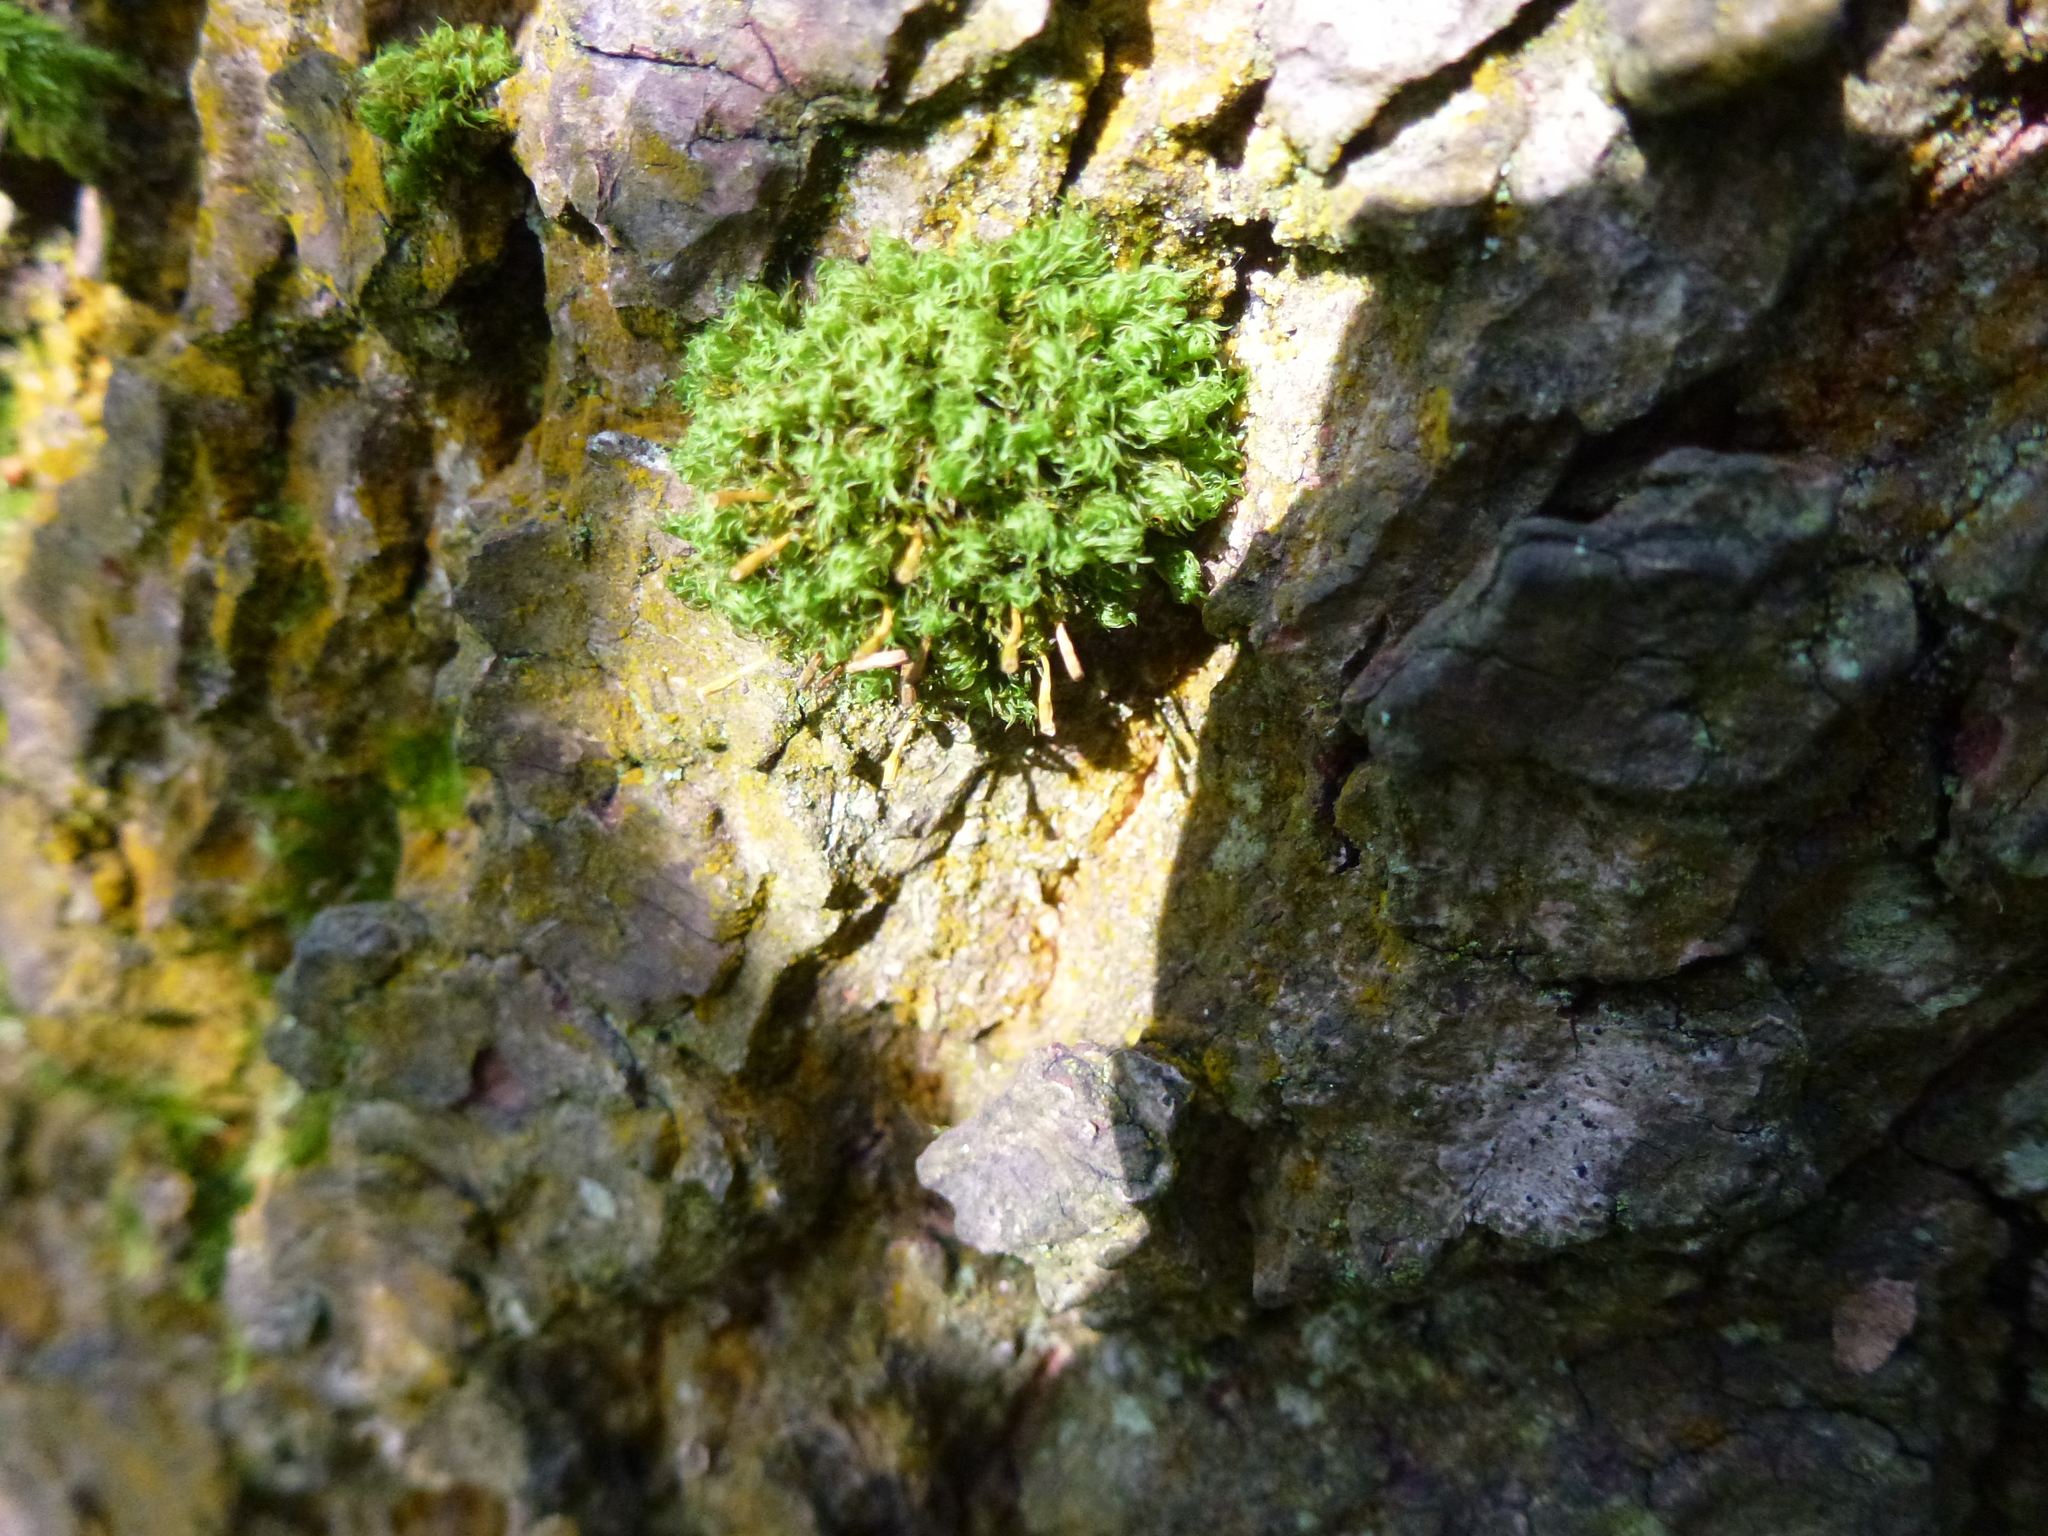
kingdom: Plantae
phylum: Bryophyta
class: Bryopsida
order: Orthotrichales
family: Orthotrichaceae
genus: Ulota
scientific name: Ulota crispa
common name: Crisped pincushion moss
